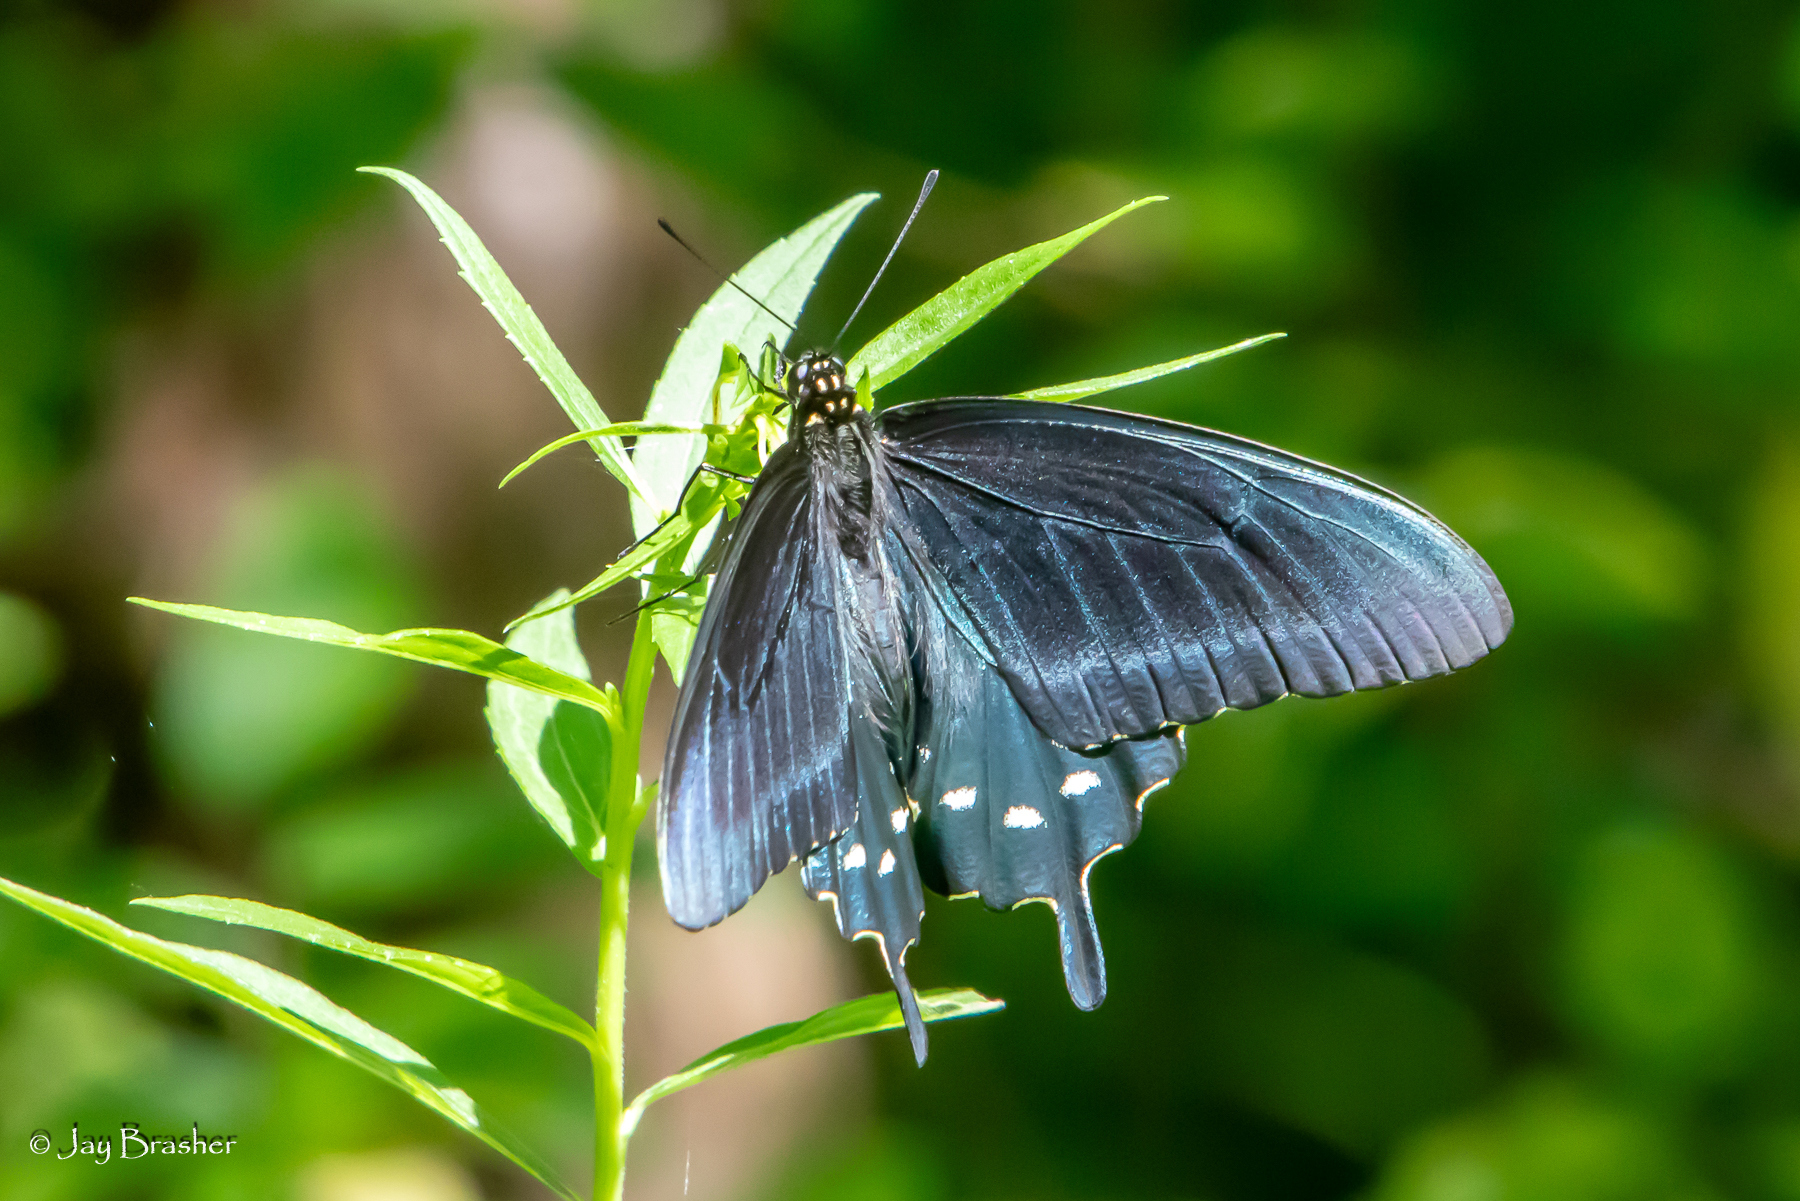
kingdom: Animalia
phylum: Arthropoda
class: Insecta
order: Lepidoptera
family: Papilionidae
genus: Battus
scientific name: Battus philenor
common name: Pipevine swallowtail
